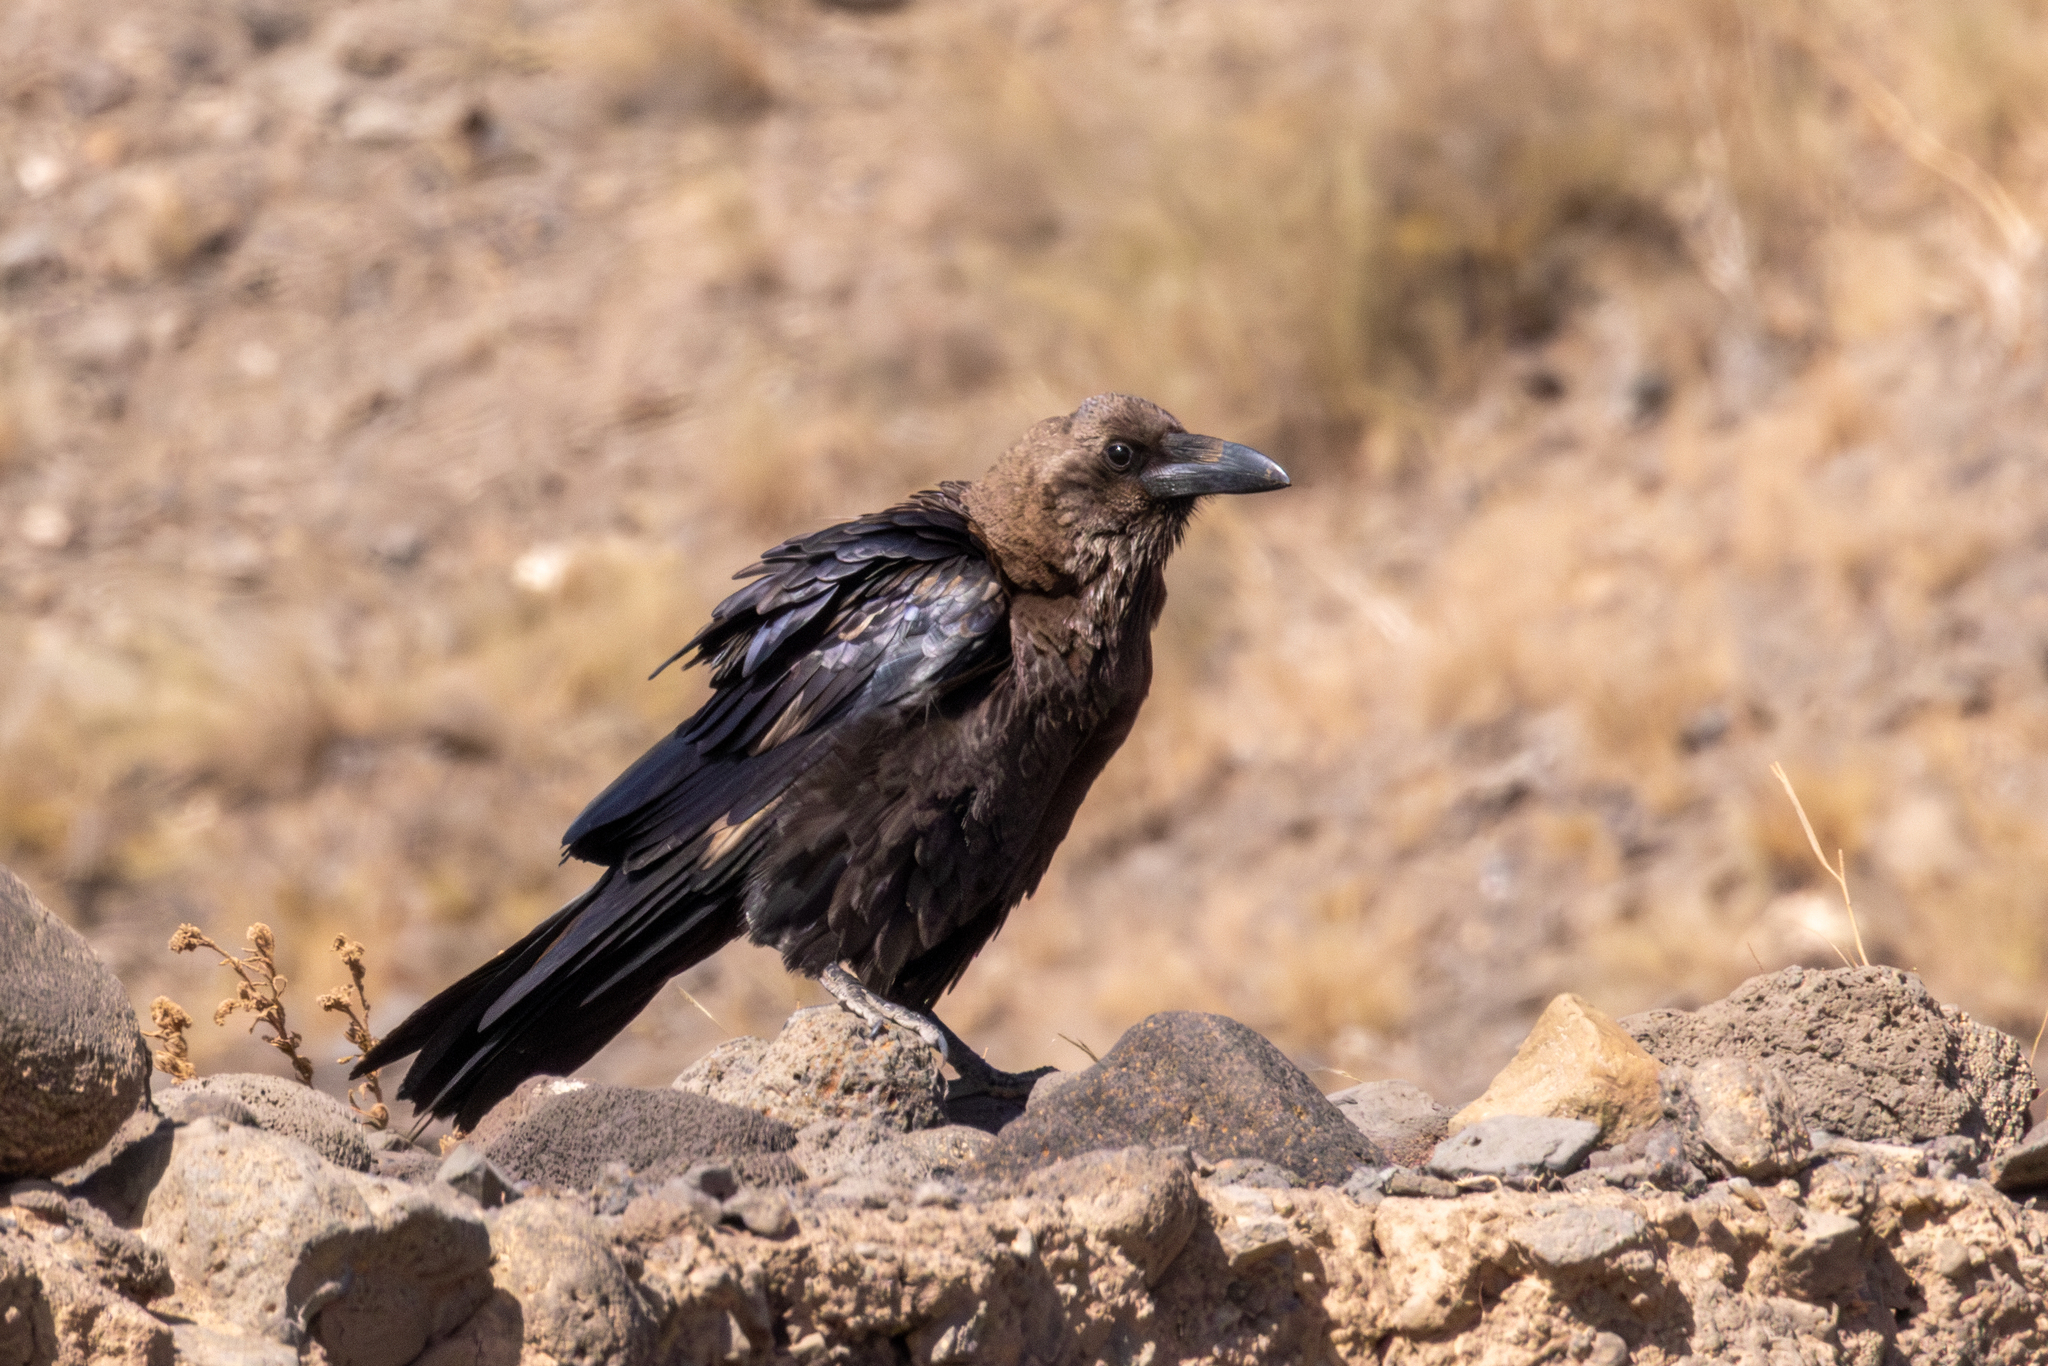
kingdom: Animalia
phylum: Chordata
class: Aves
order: Passeriformes
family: Corvidae
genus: Corvus
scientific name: Corvus ruficollis
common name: Brown-necked raven
